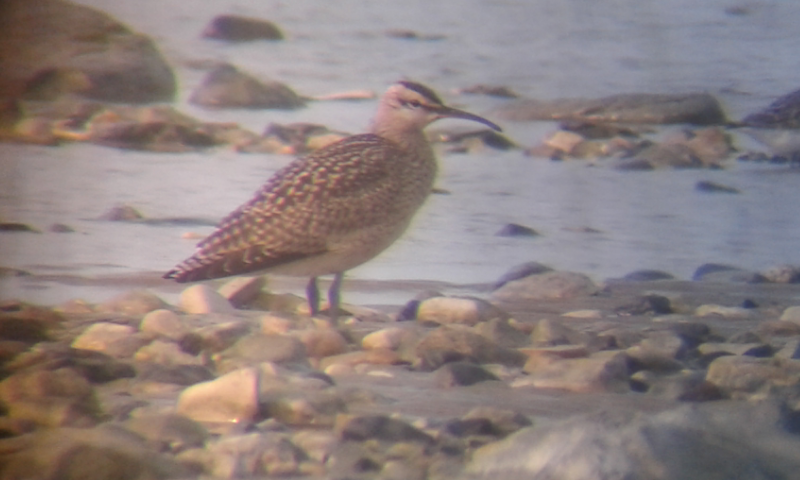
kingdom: Animalia
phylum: Chordata
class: Aves
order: Charadriiformes
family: Scolopacidae
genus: Numenius
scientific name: Numenius phaeopus
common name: Whimbrel
